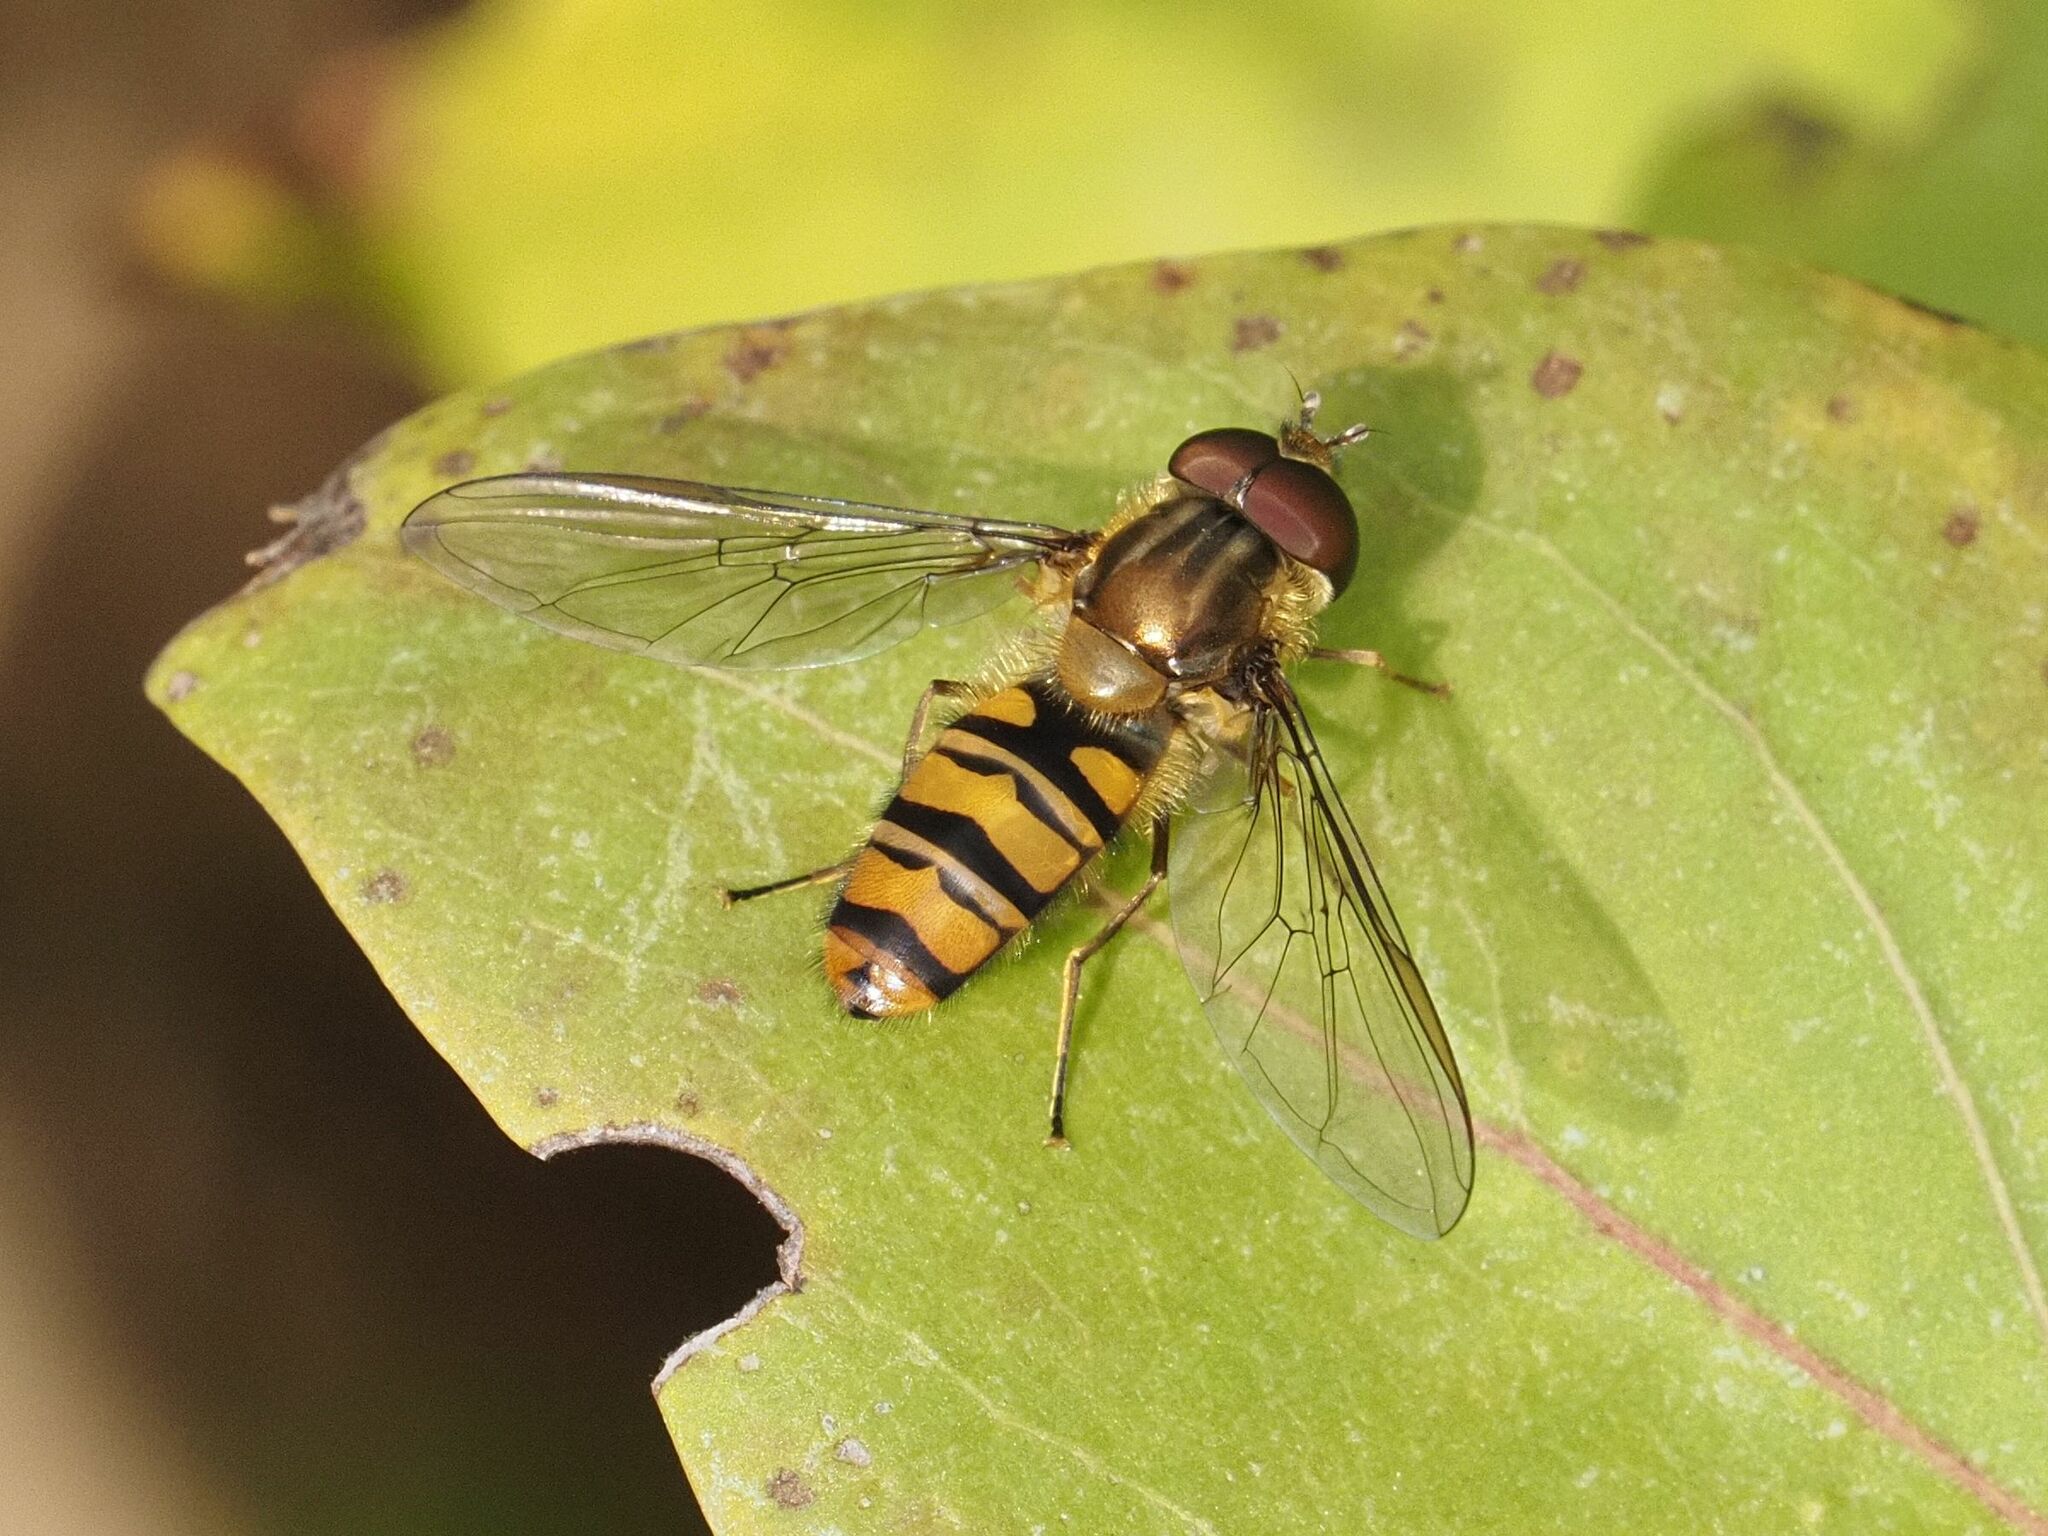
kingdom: Animalia
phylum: Arthropoda
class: Insecta
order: Diptera
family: Syrphidae
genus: Episyrphus
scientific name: Episyrphus balteatus
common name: Marmalade hoverfly
